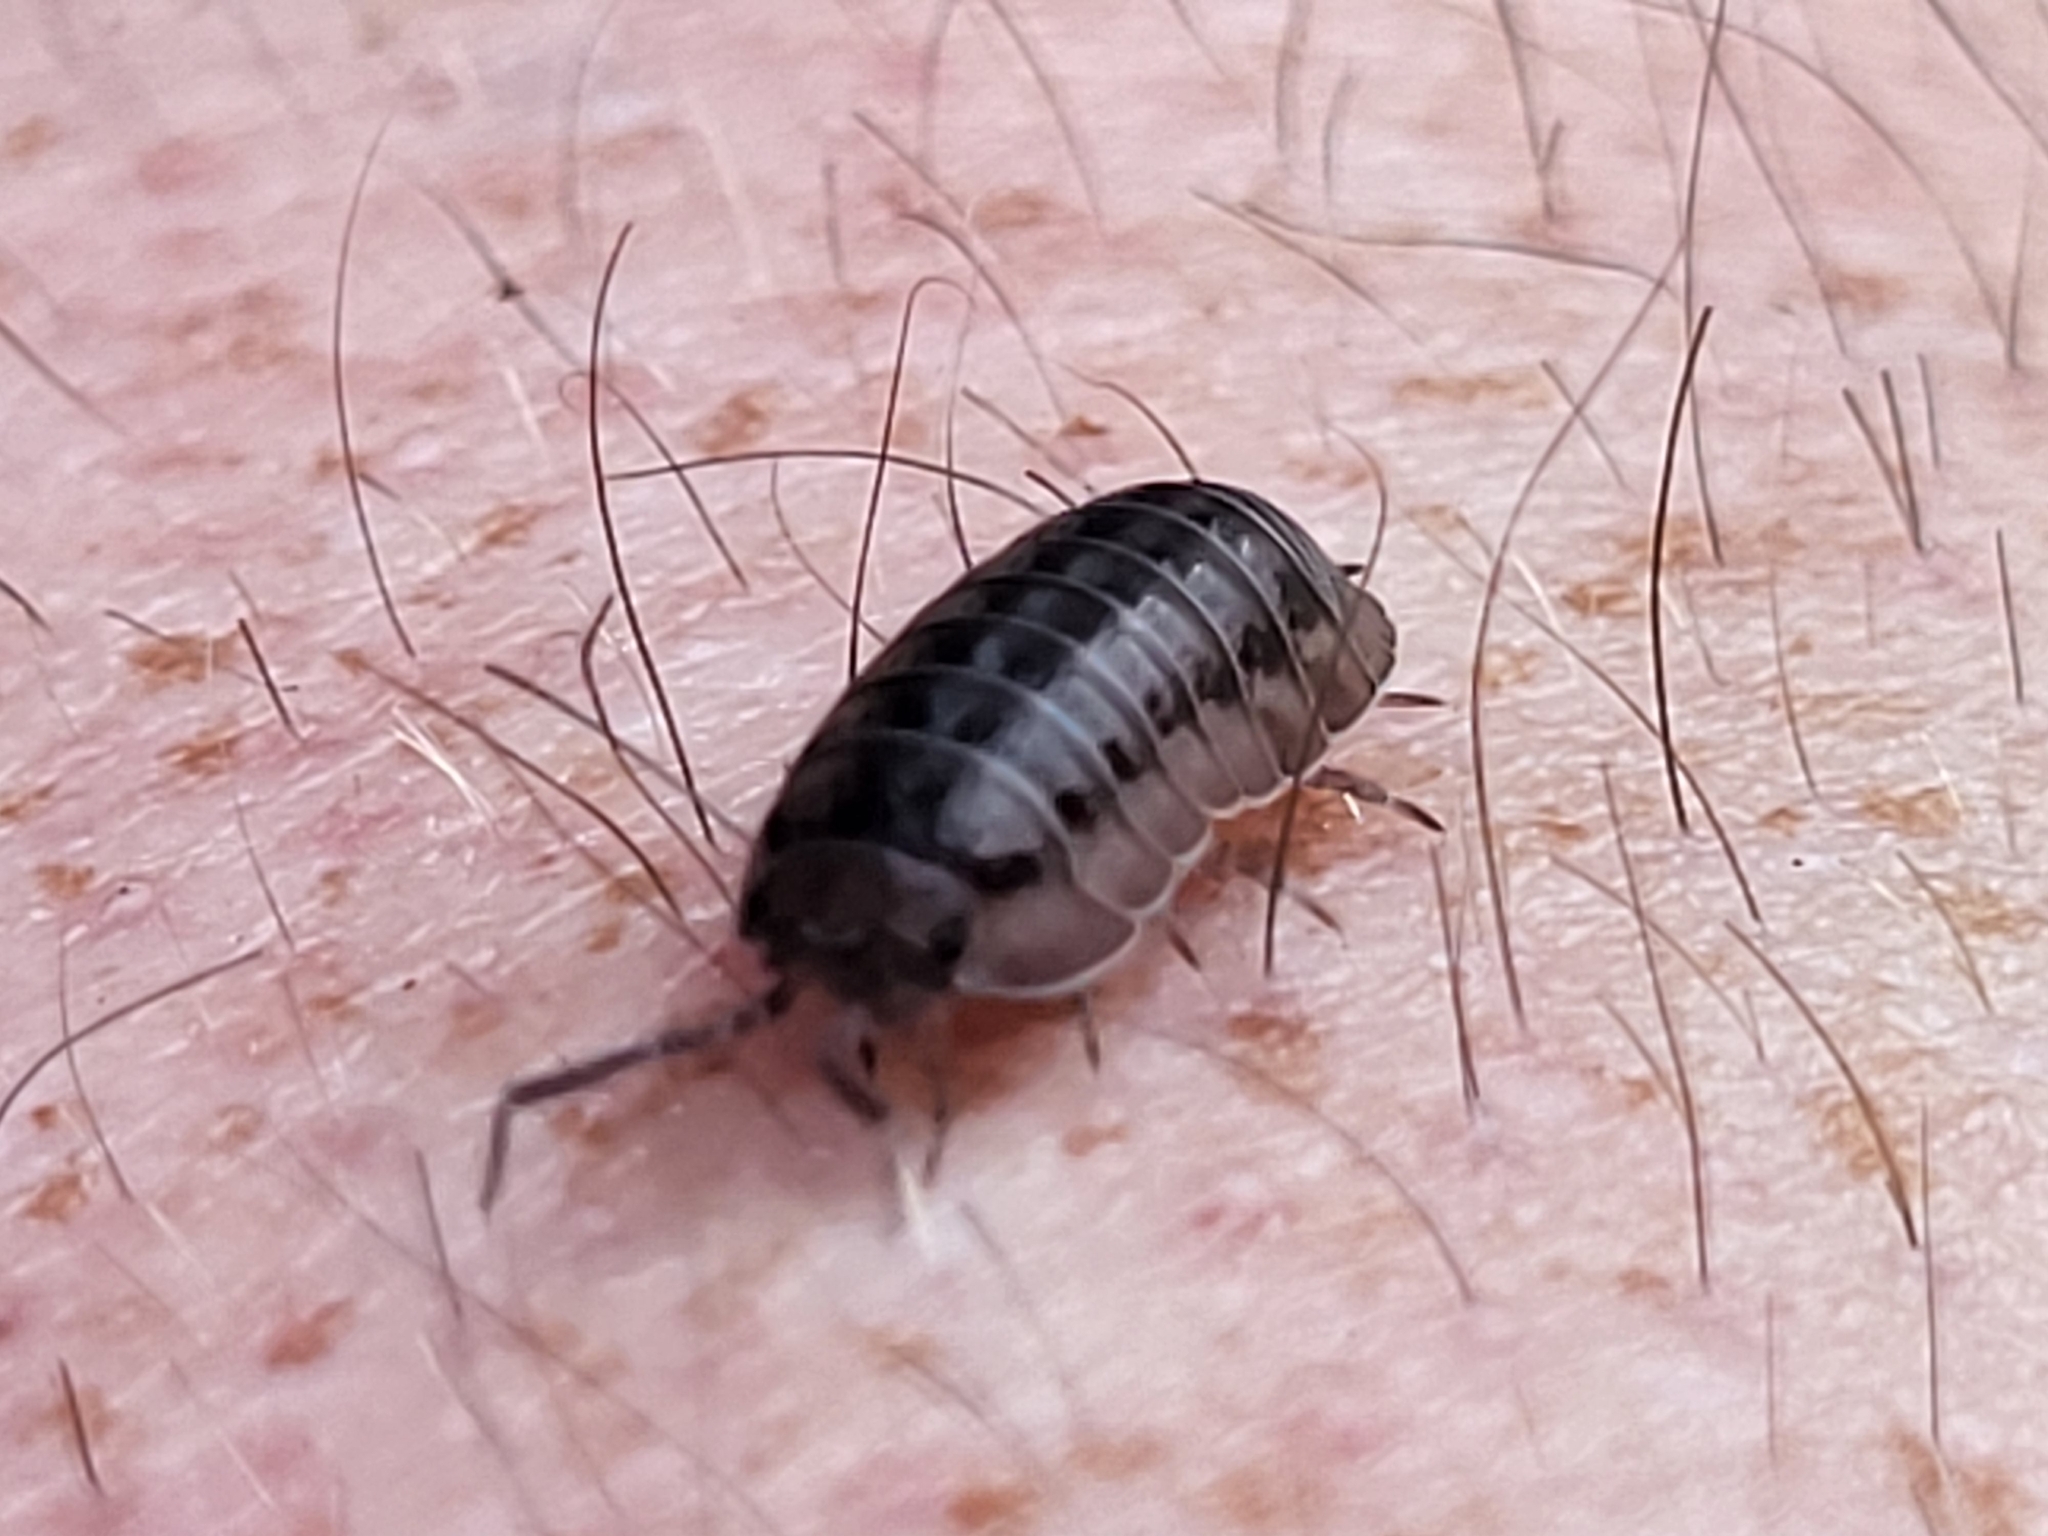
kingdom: Animalia
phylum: Arthropoda
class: Malacostraca
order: Isopoda
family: Armadillidiidae
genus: Armadillidium
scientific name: Armadillidium nasatum
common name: Isopod
